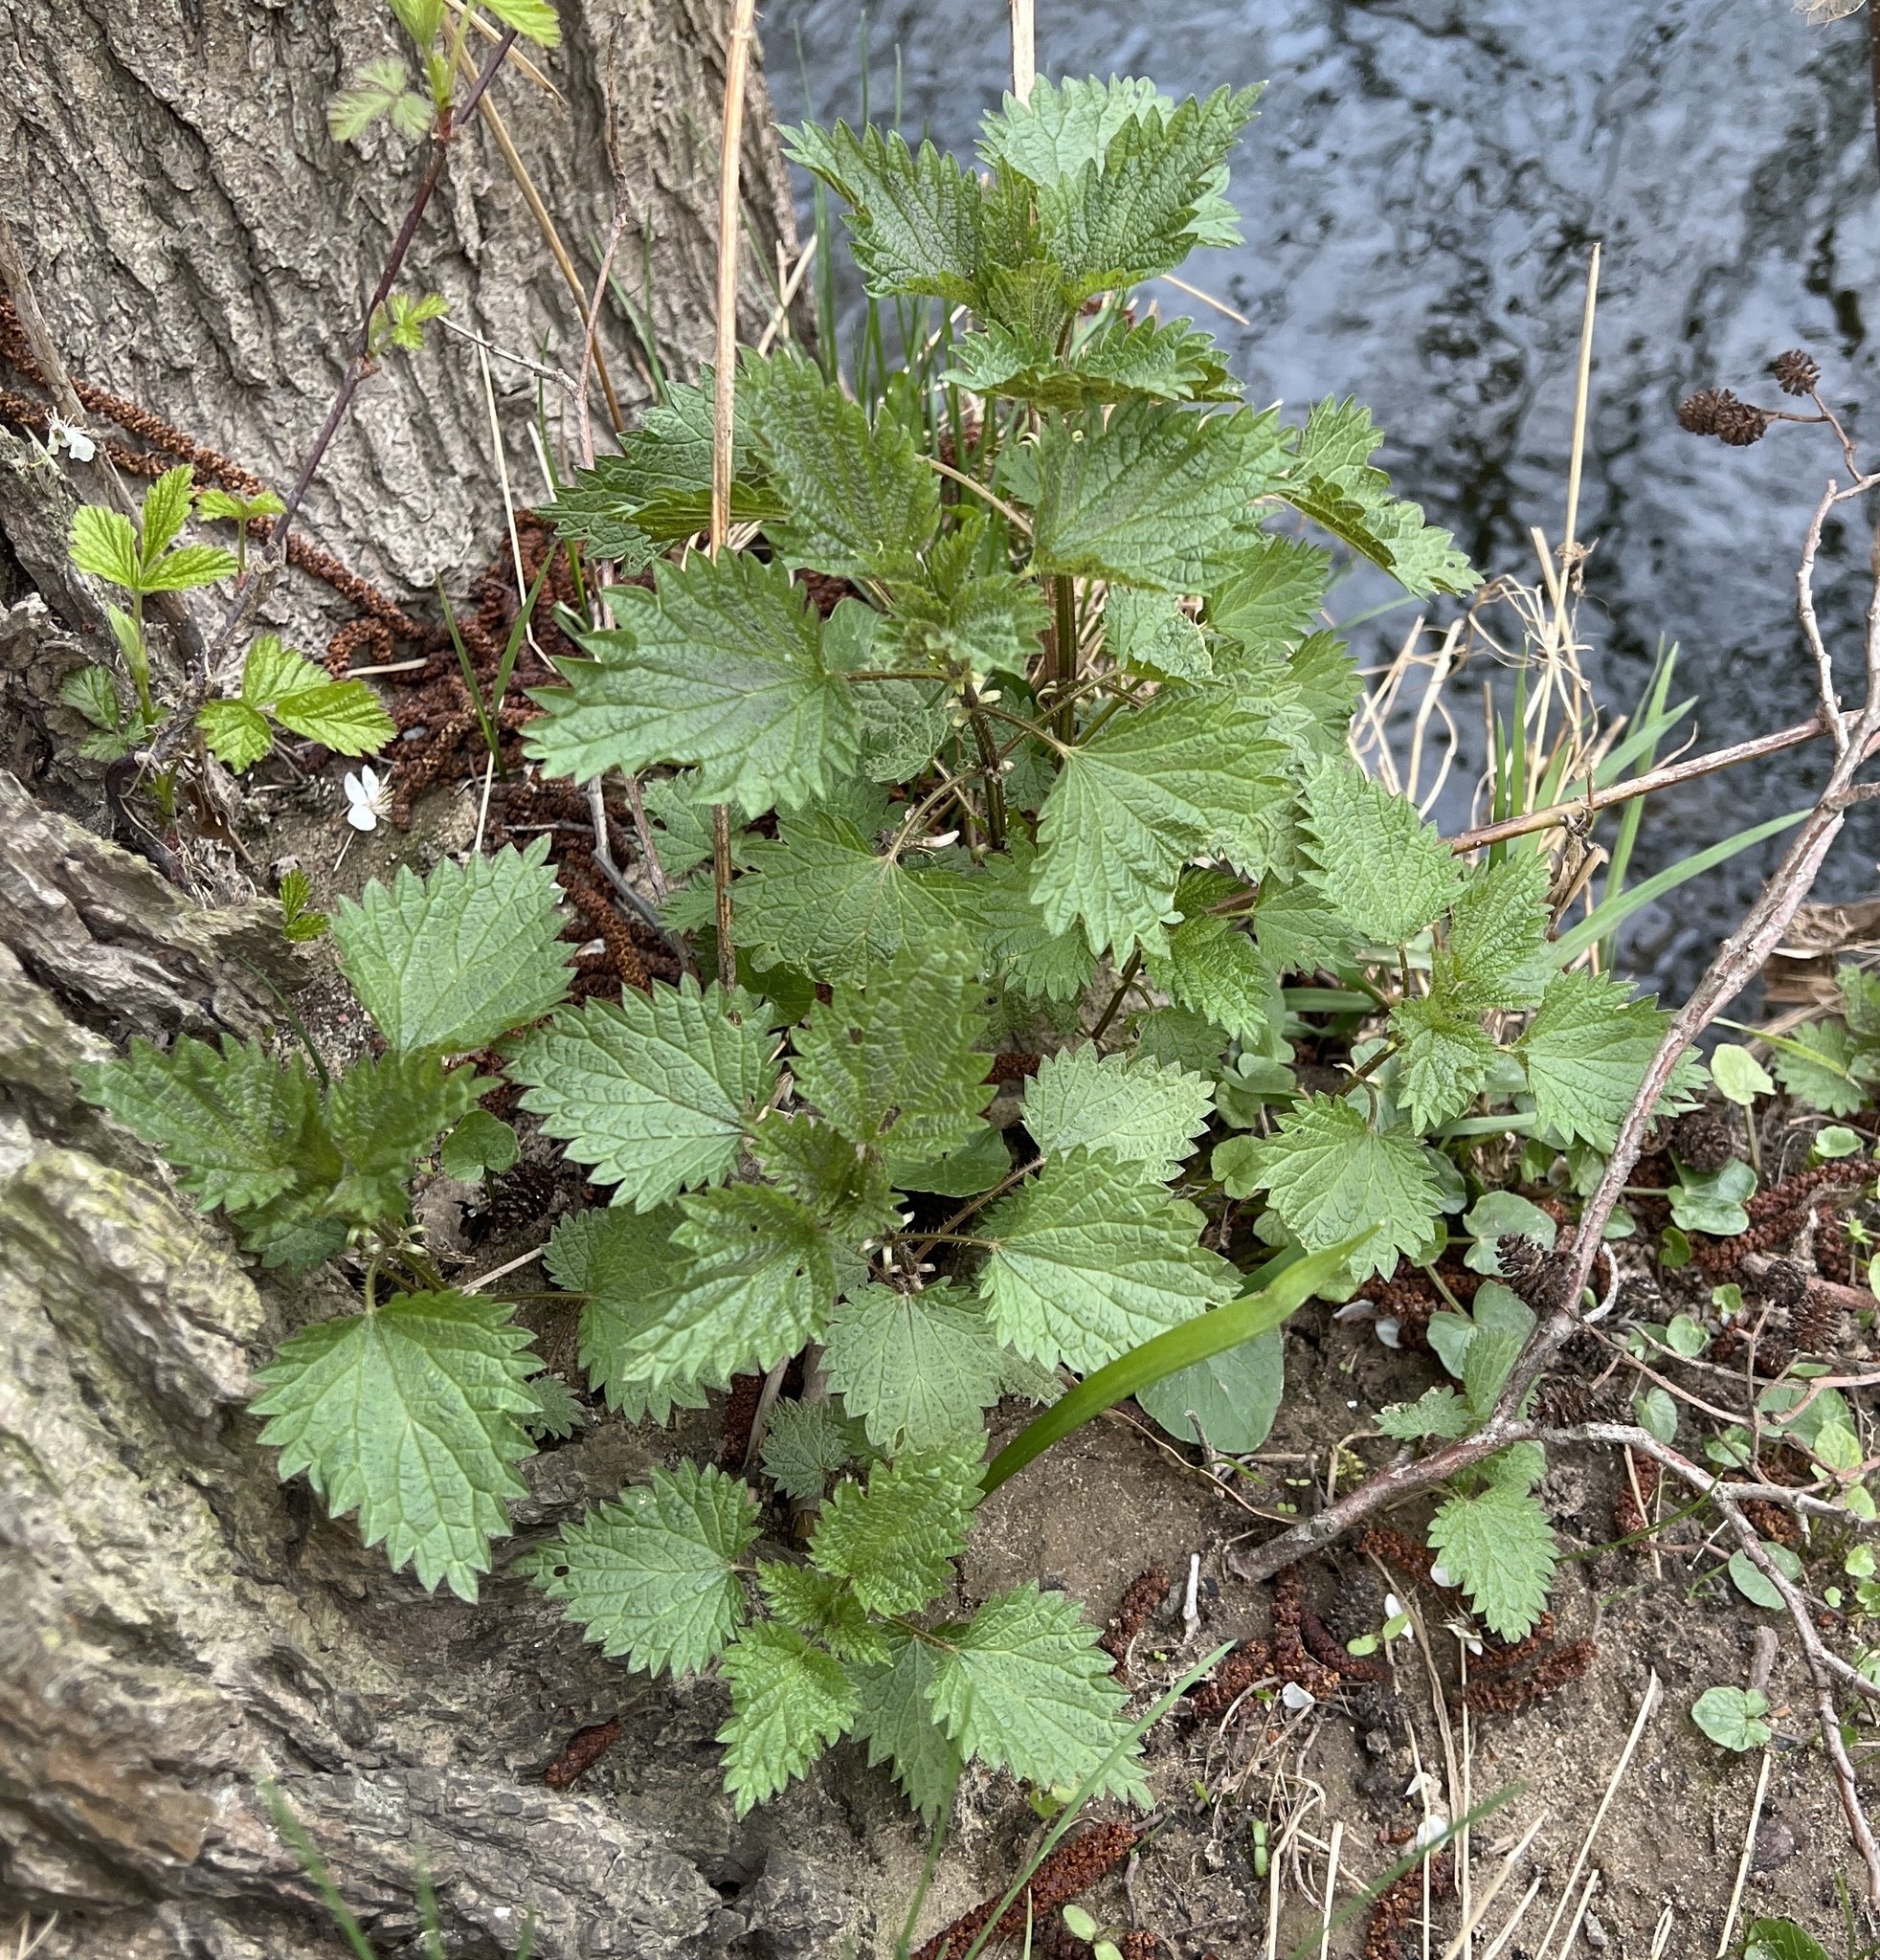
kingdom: Plantae
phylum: Tracheophyta
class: Magnoliopsida
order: Rosales
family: Urticaceae
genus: Urtica
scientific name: Urtica dioica
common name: Common nettle
